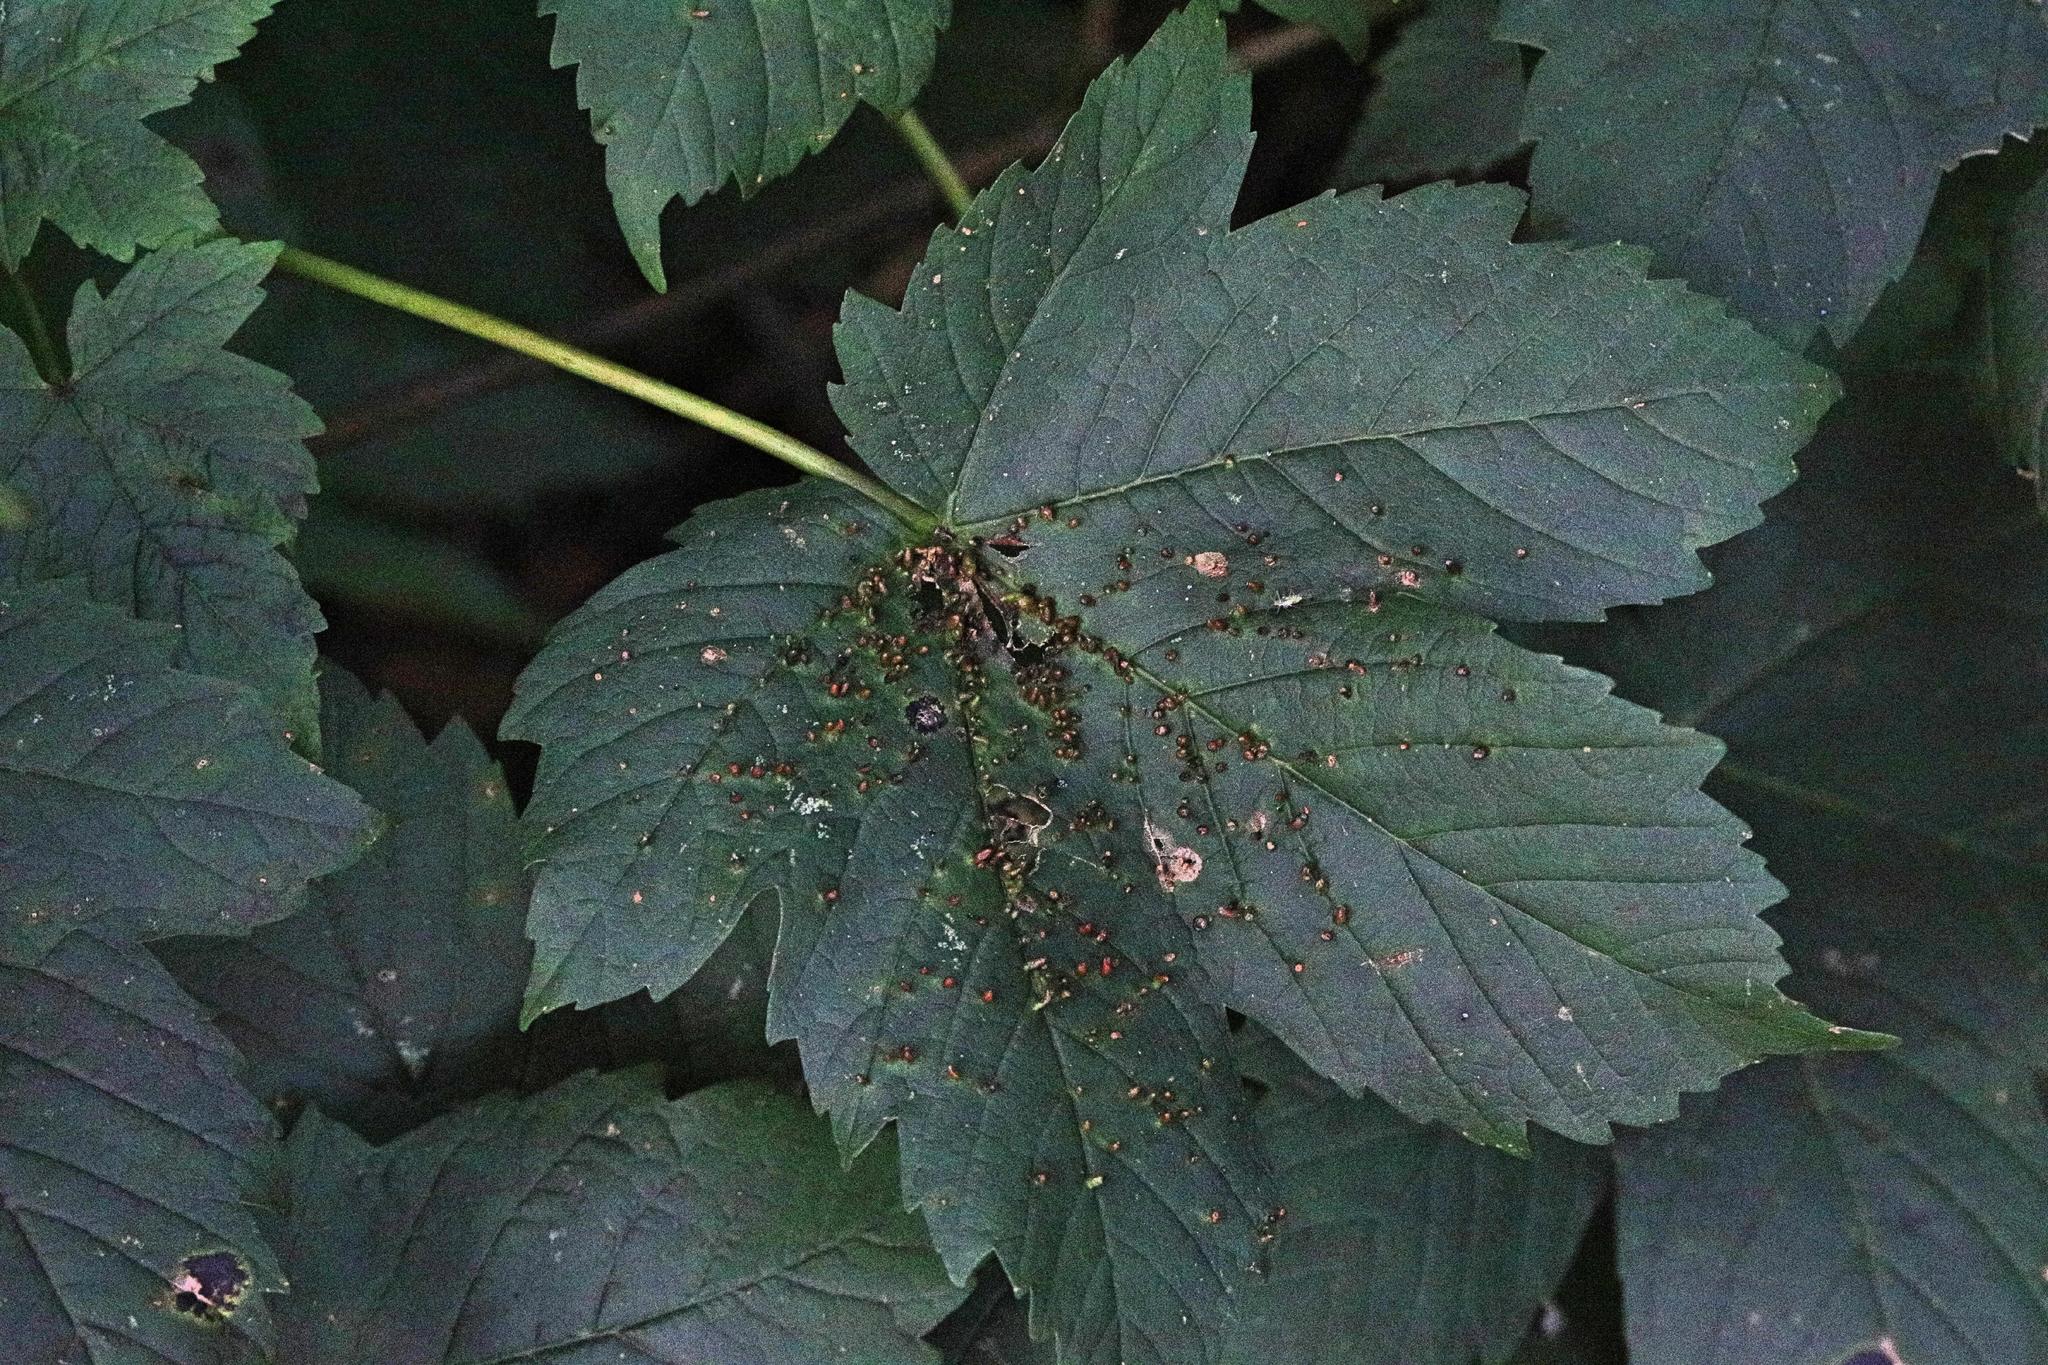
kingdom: Animalia
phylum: Arthropoda
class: Arachnida
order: Trombidiformes
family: Eriophyidae
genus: Aceria
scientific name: Aceria cephaloneus
